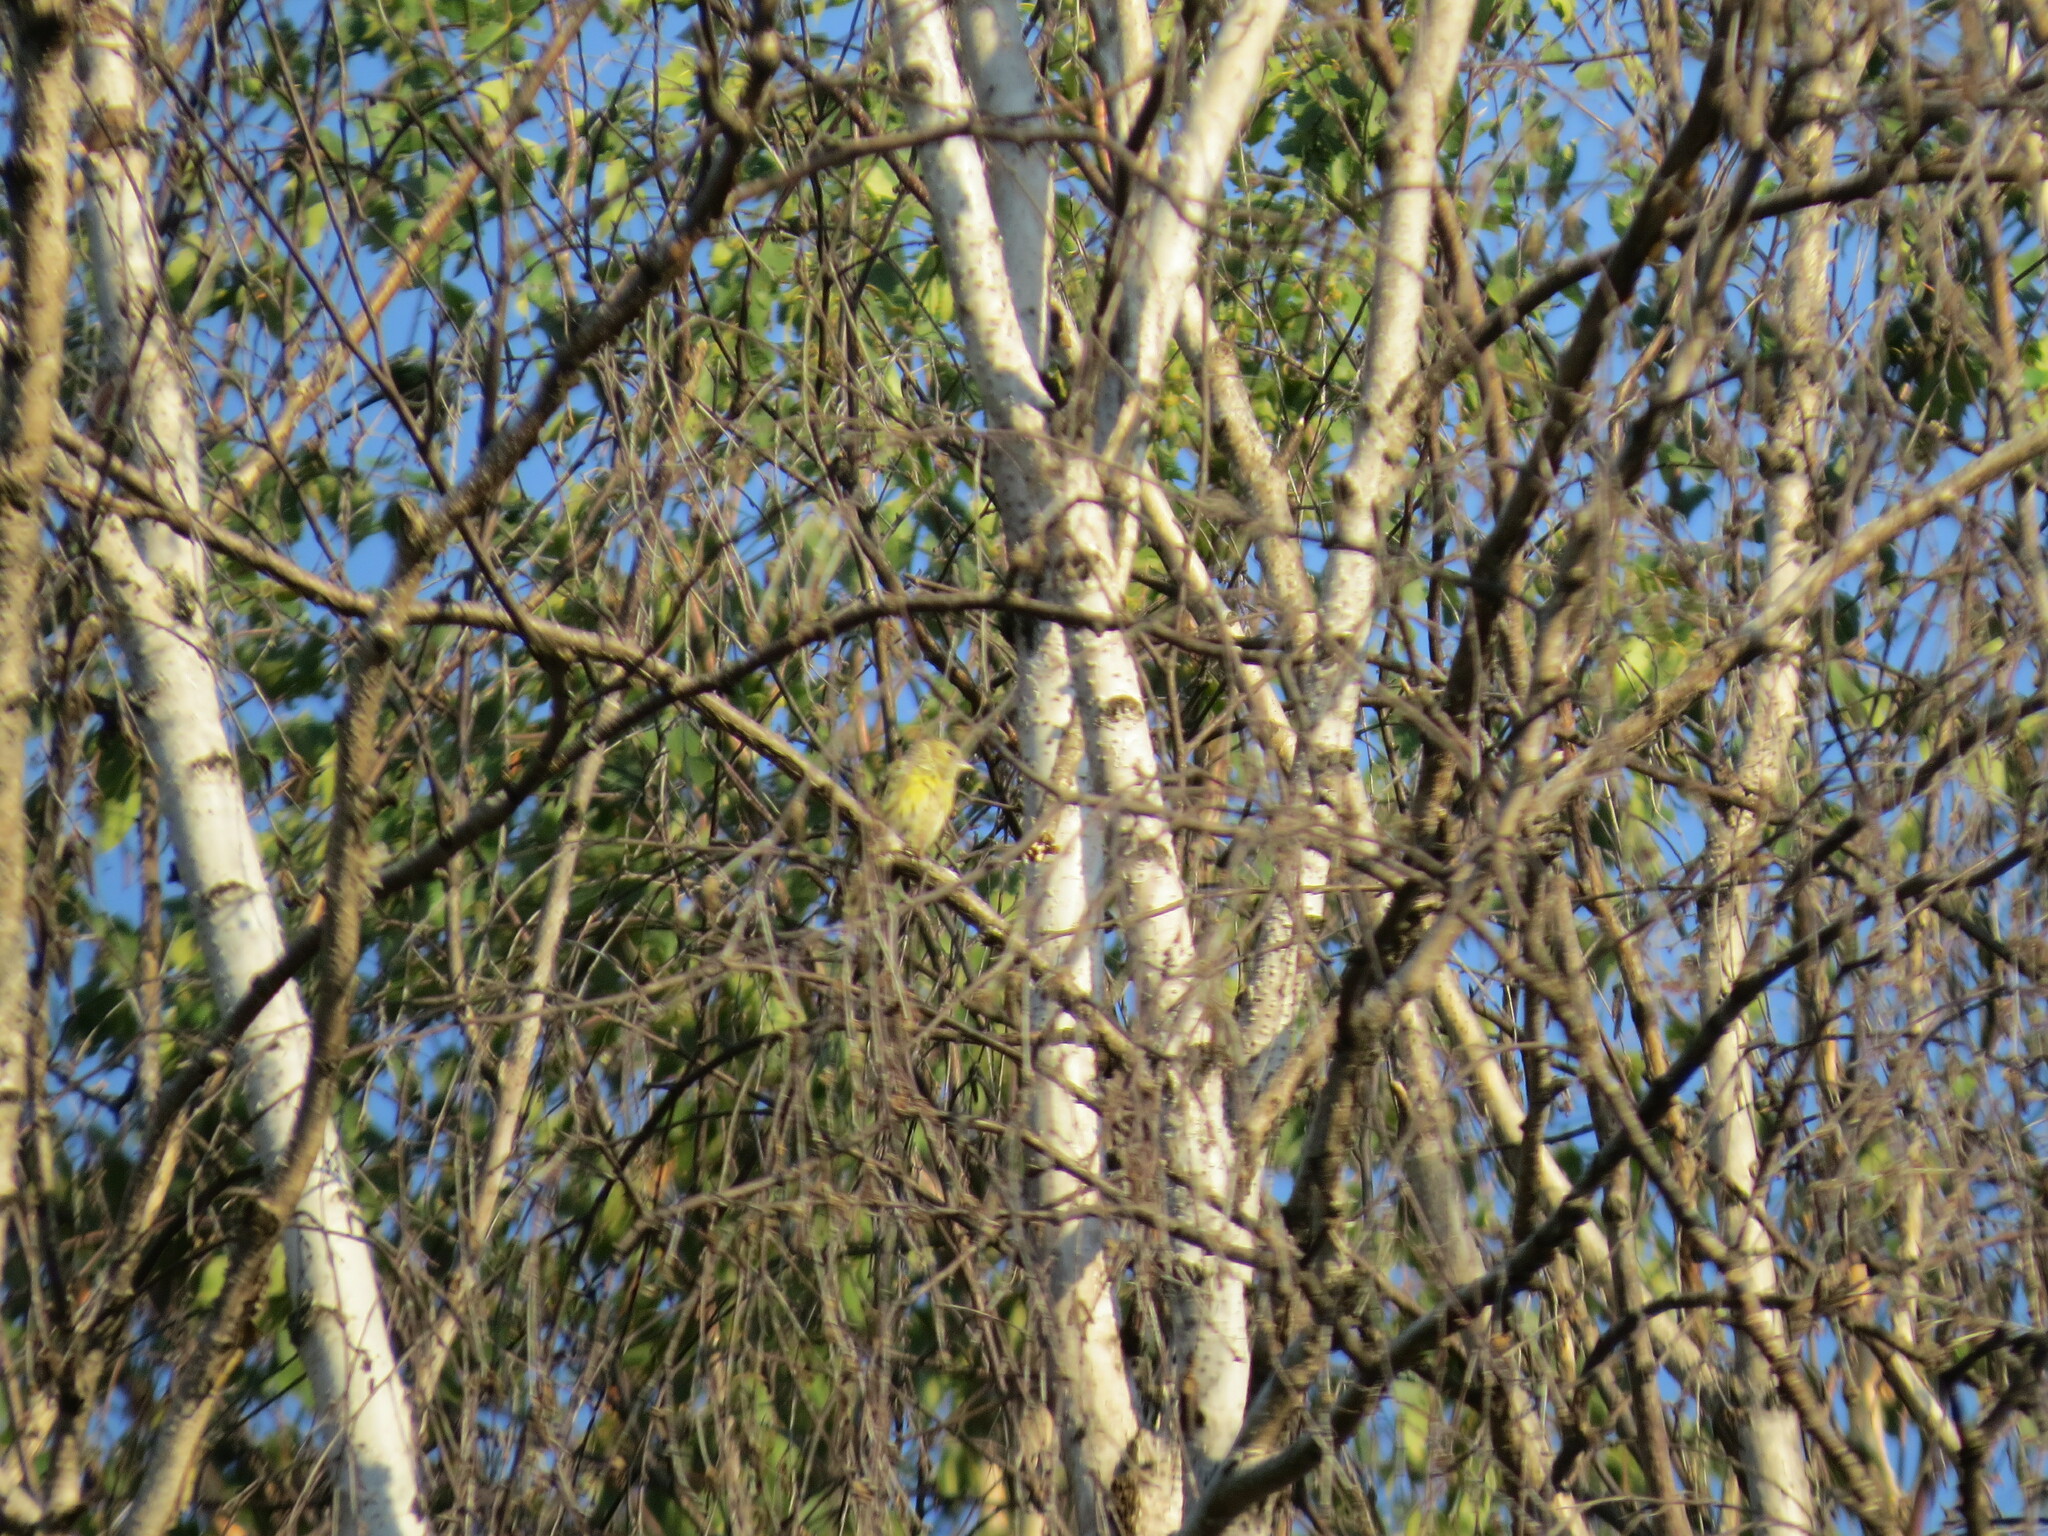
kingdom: Plantae
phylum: Tracheophyta
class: Liliopsida
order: Poales
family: Poaceae
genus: Chloris
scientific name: Chloris chloris
